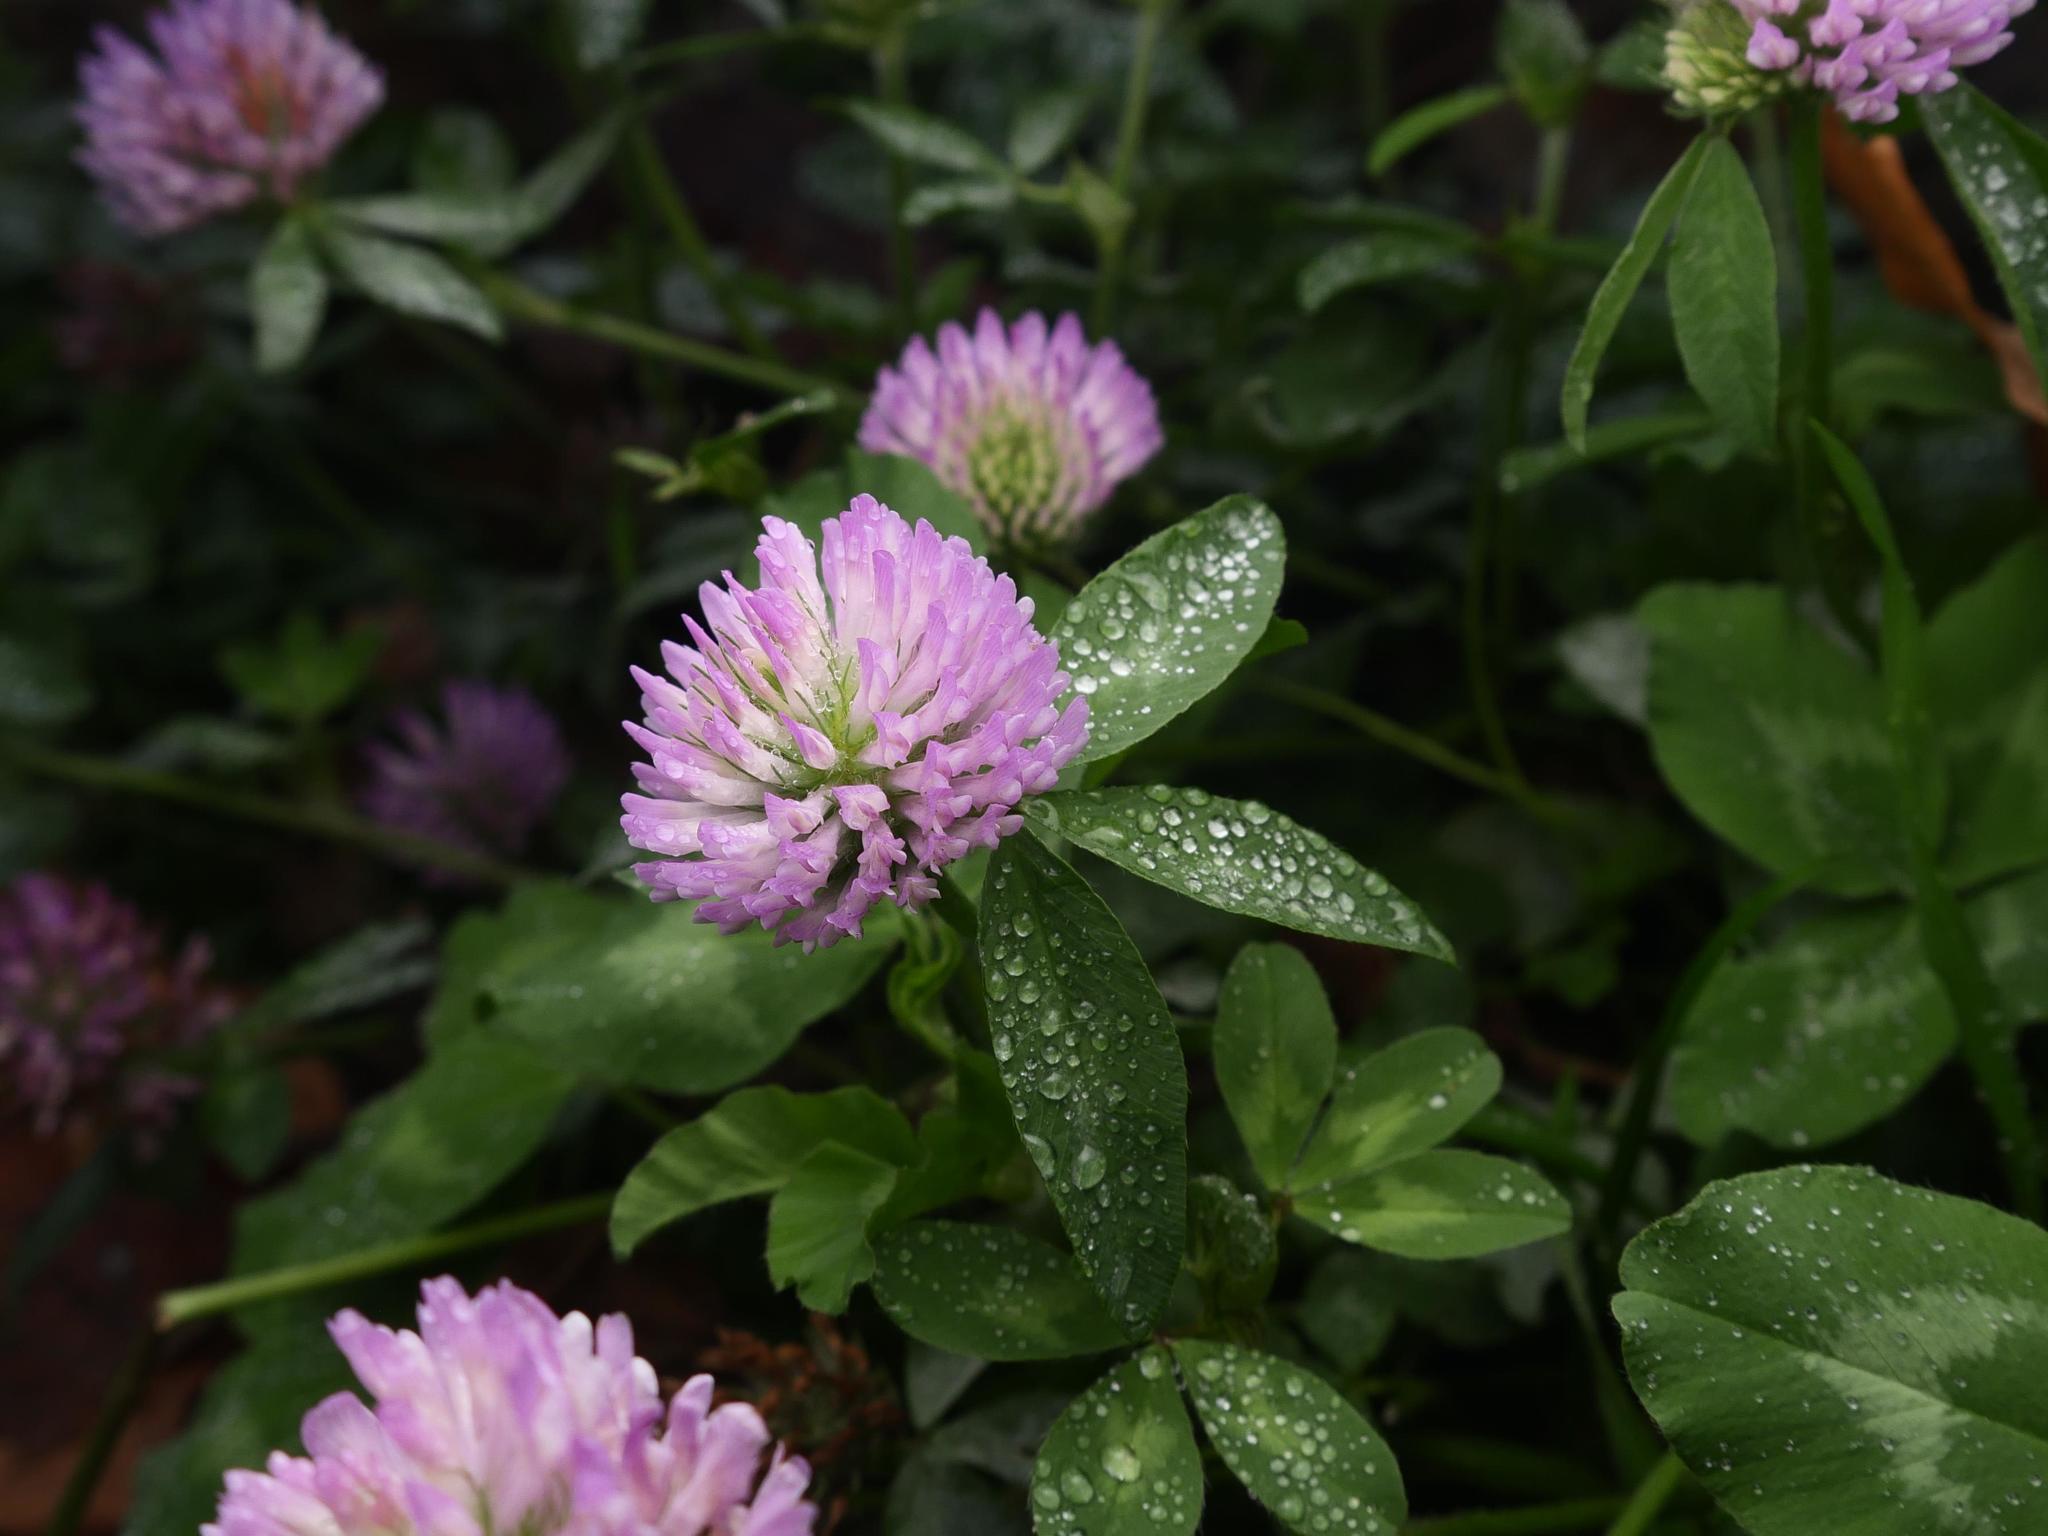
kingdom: Plantae
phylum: Tracheophyta
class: Magnoliopsida
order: Fabales
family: Fabaceae
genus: Trifolium
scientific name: Trifolium pratense
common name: Red clover
